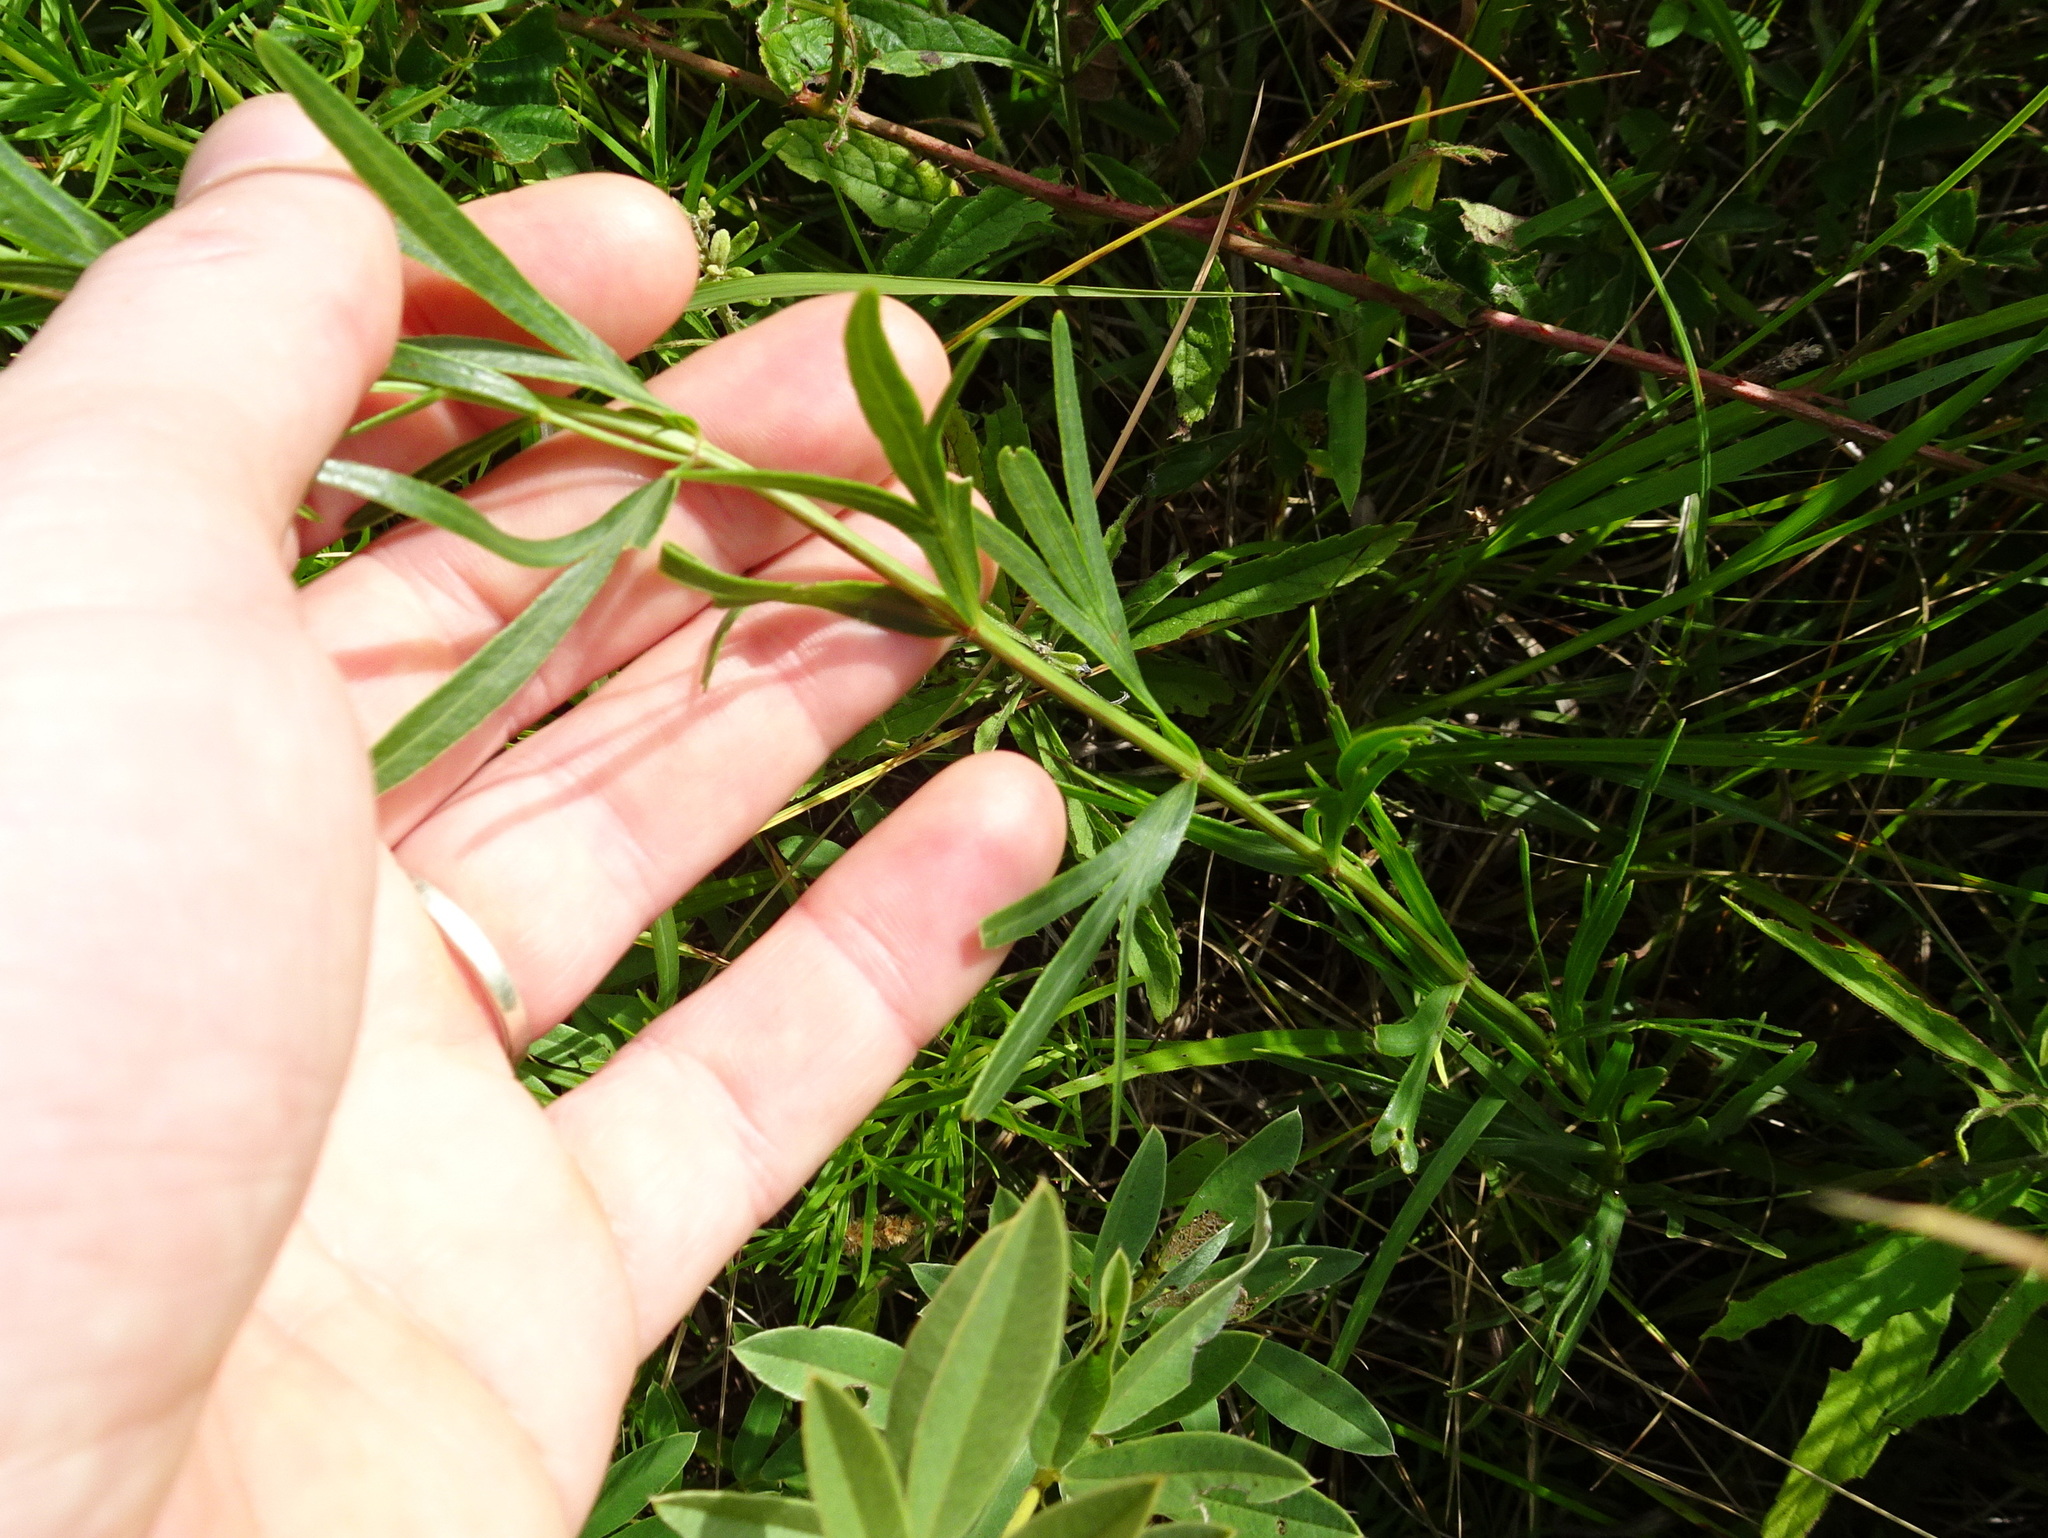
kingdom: Plantae
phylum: Tracheophyta
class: Magnoliopsida
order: Asterales
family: Asteraceae
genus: Coreopsis
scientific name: Coreopsis palmata
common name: Prairie coreopsis
